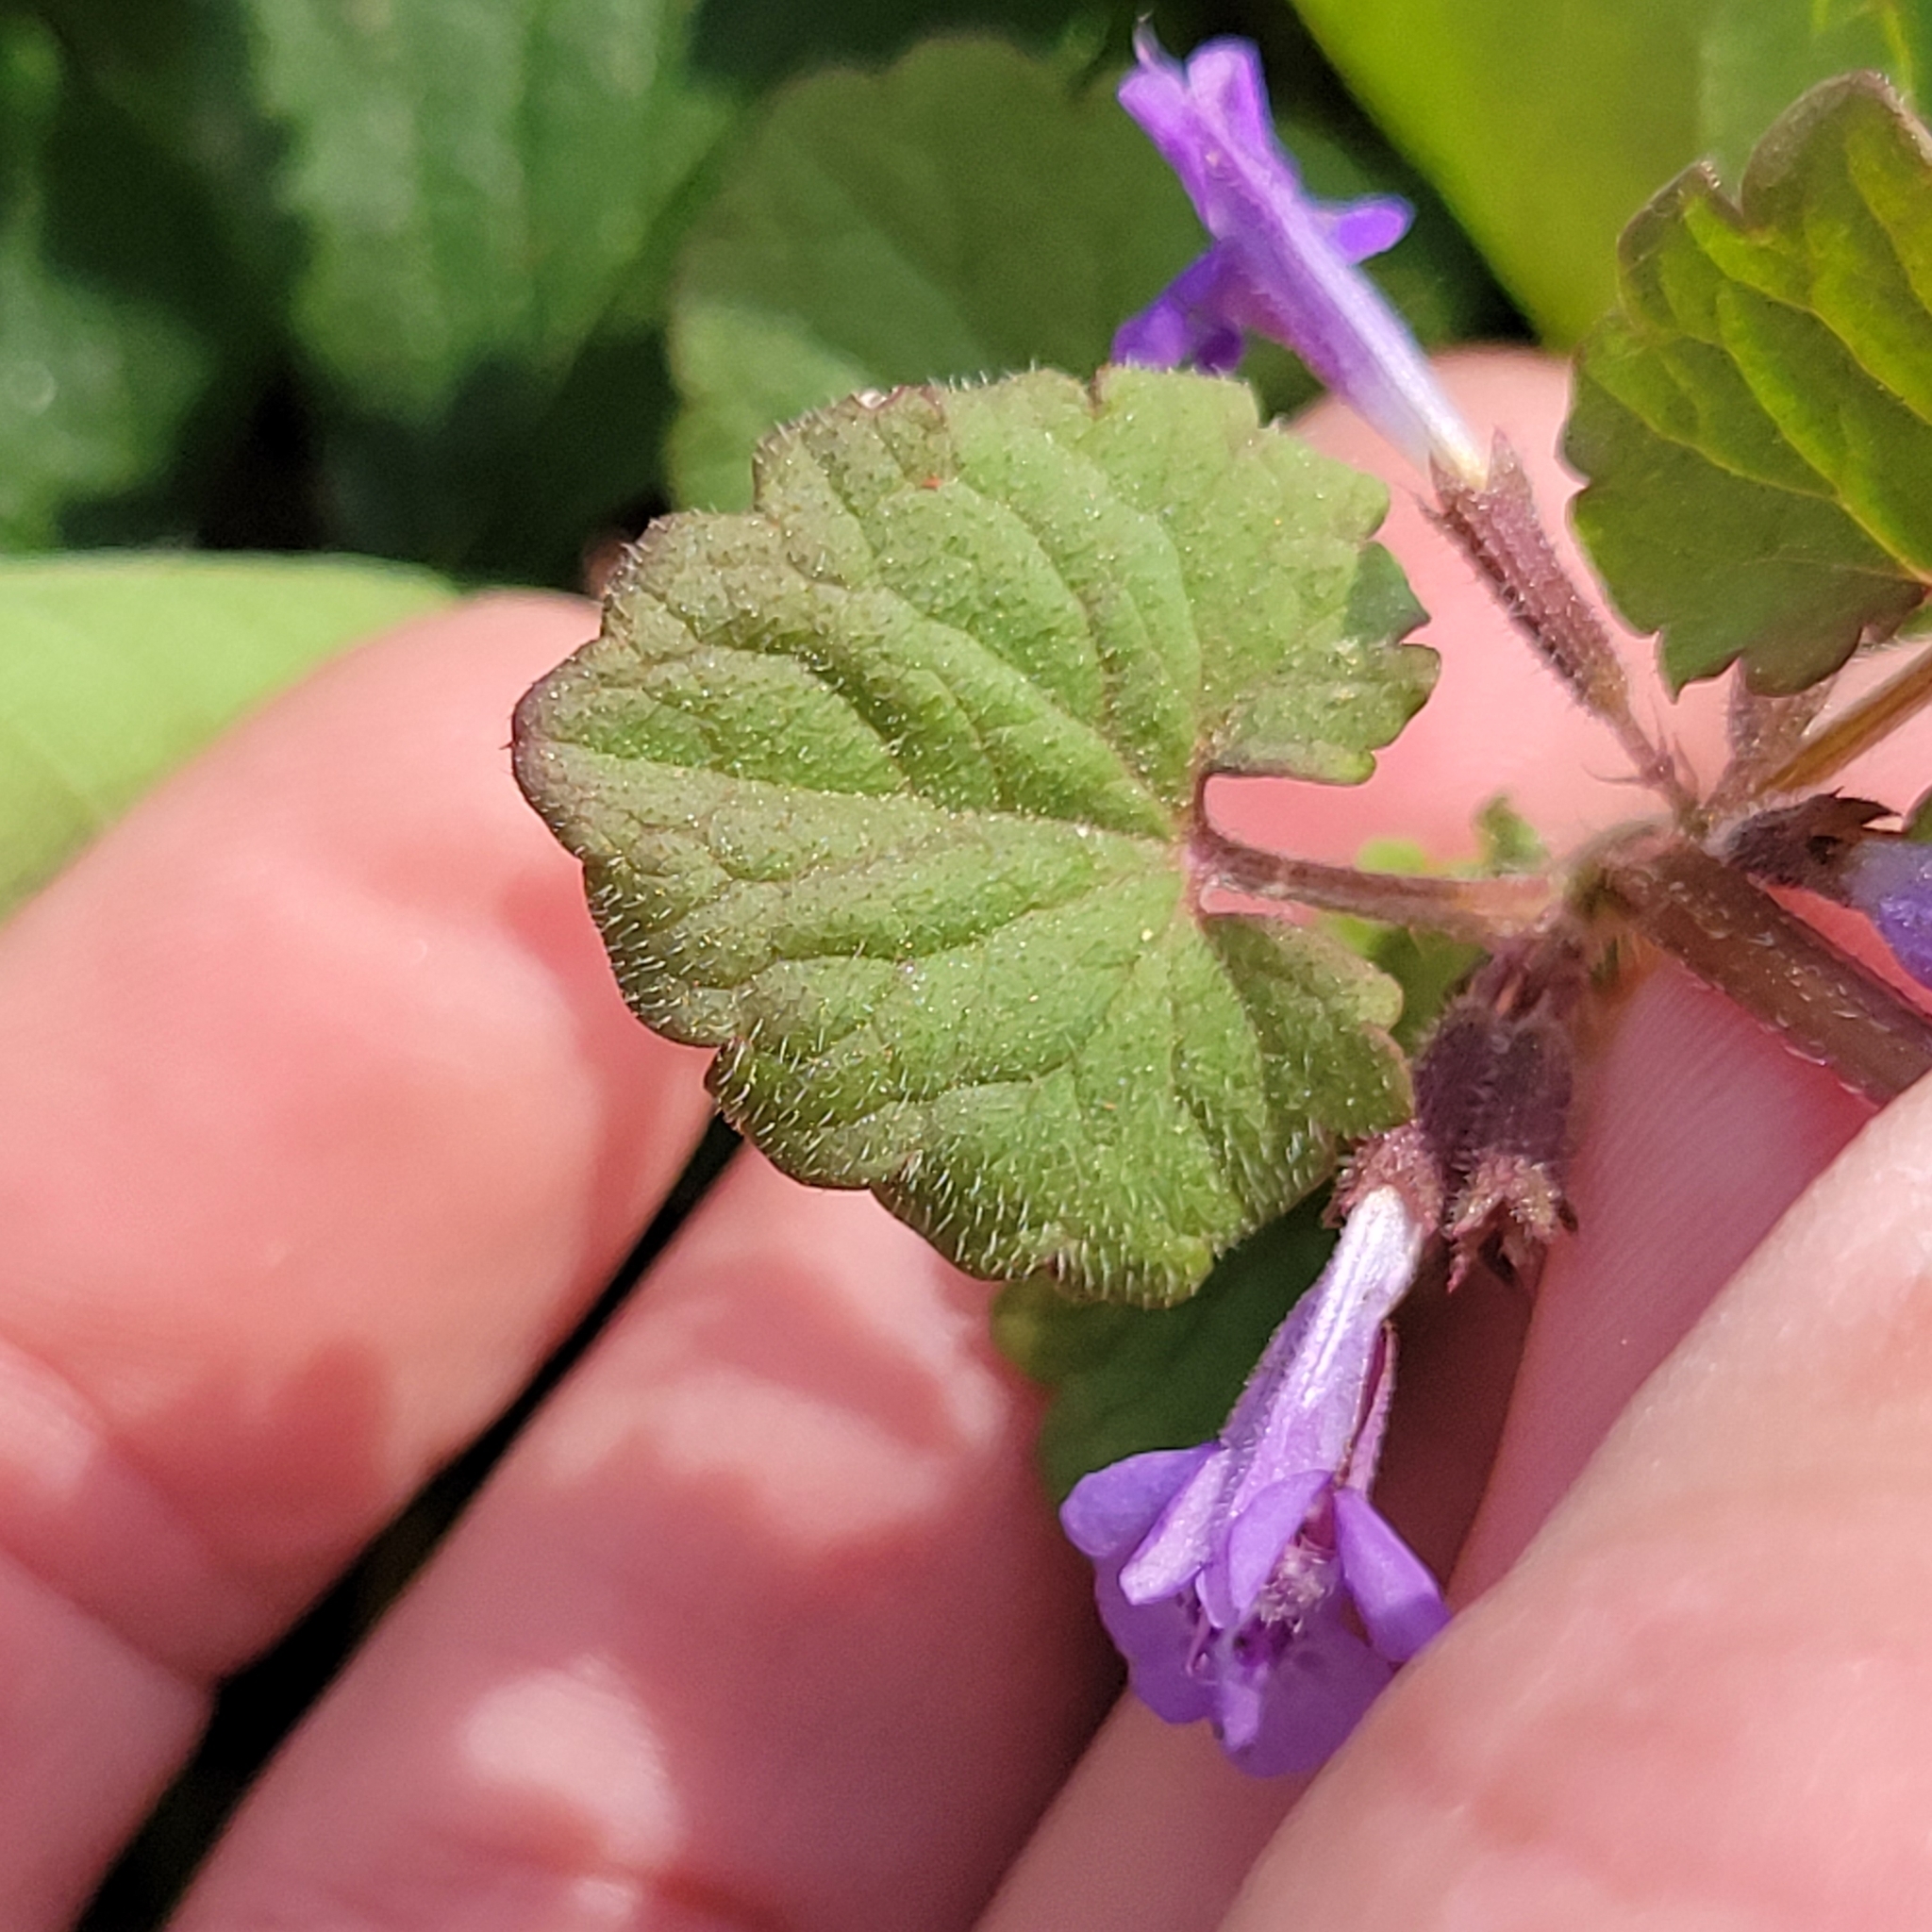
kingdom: Plantae
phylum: Tracheophyta
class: Magnoliopsida
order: Lamiales
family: Lamiaceae
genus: Glechoma
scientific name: Glechoma hederacea
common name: Ground ivy
